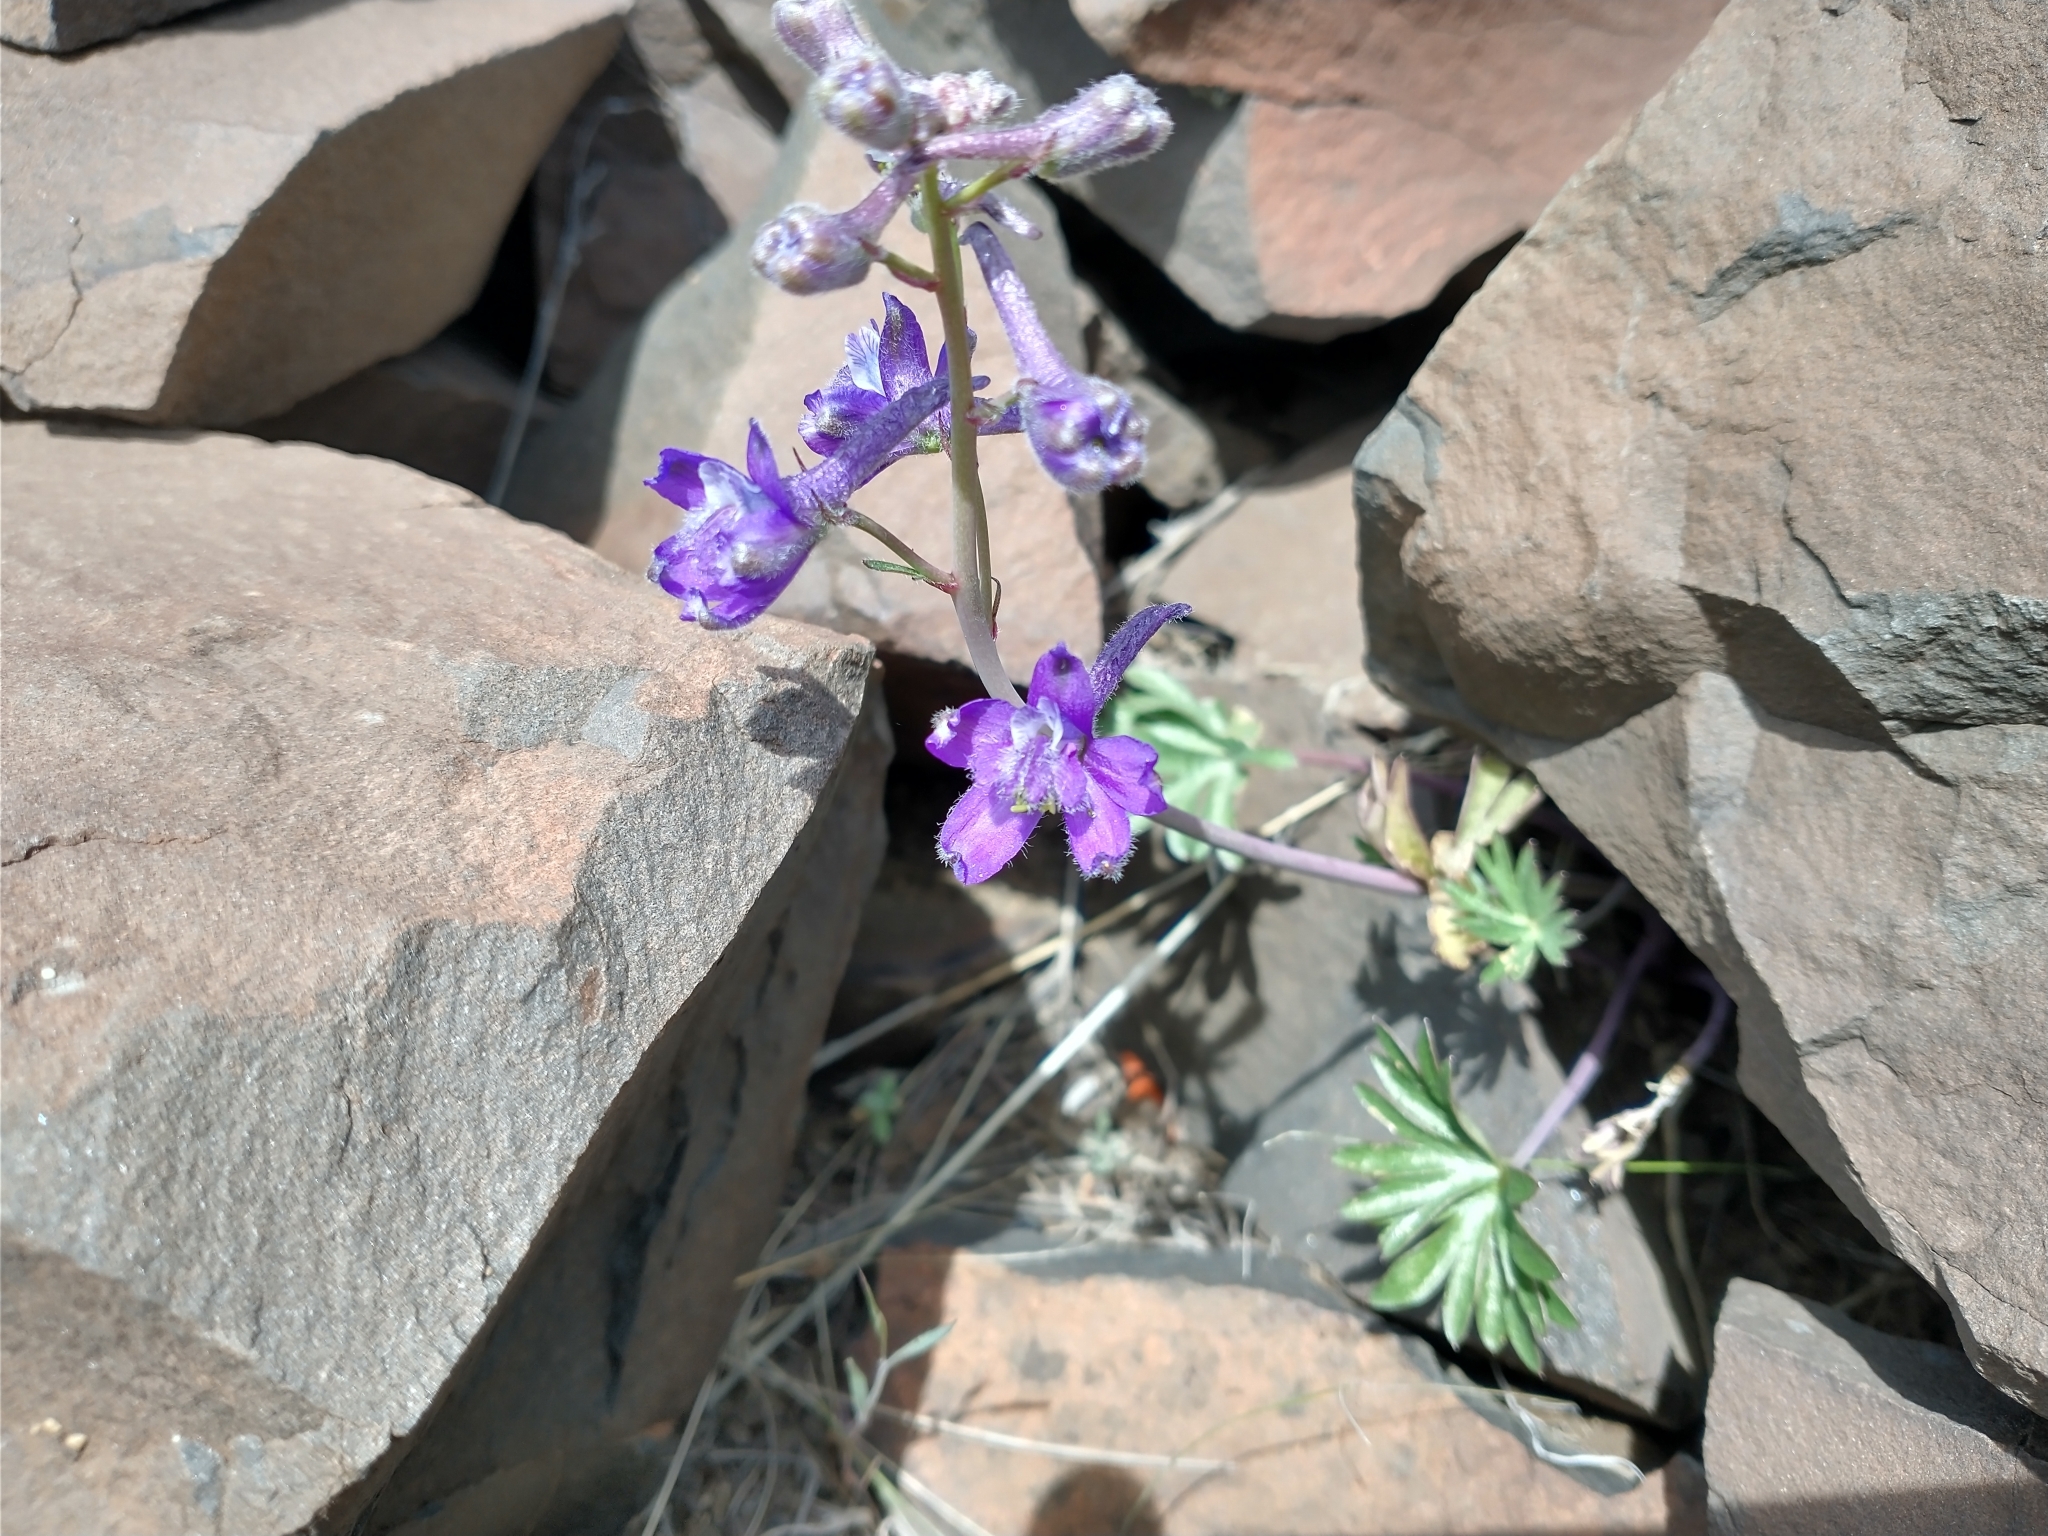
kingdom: Plantae
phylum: Tracheophyta
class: Magnoliopsida
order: Ranunculales
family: Ranunculaceae
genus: Delphinium
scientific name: Delphinium nuttallianum
